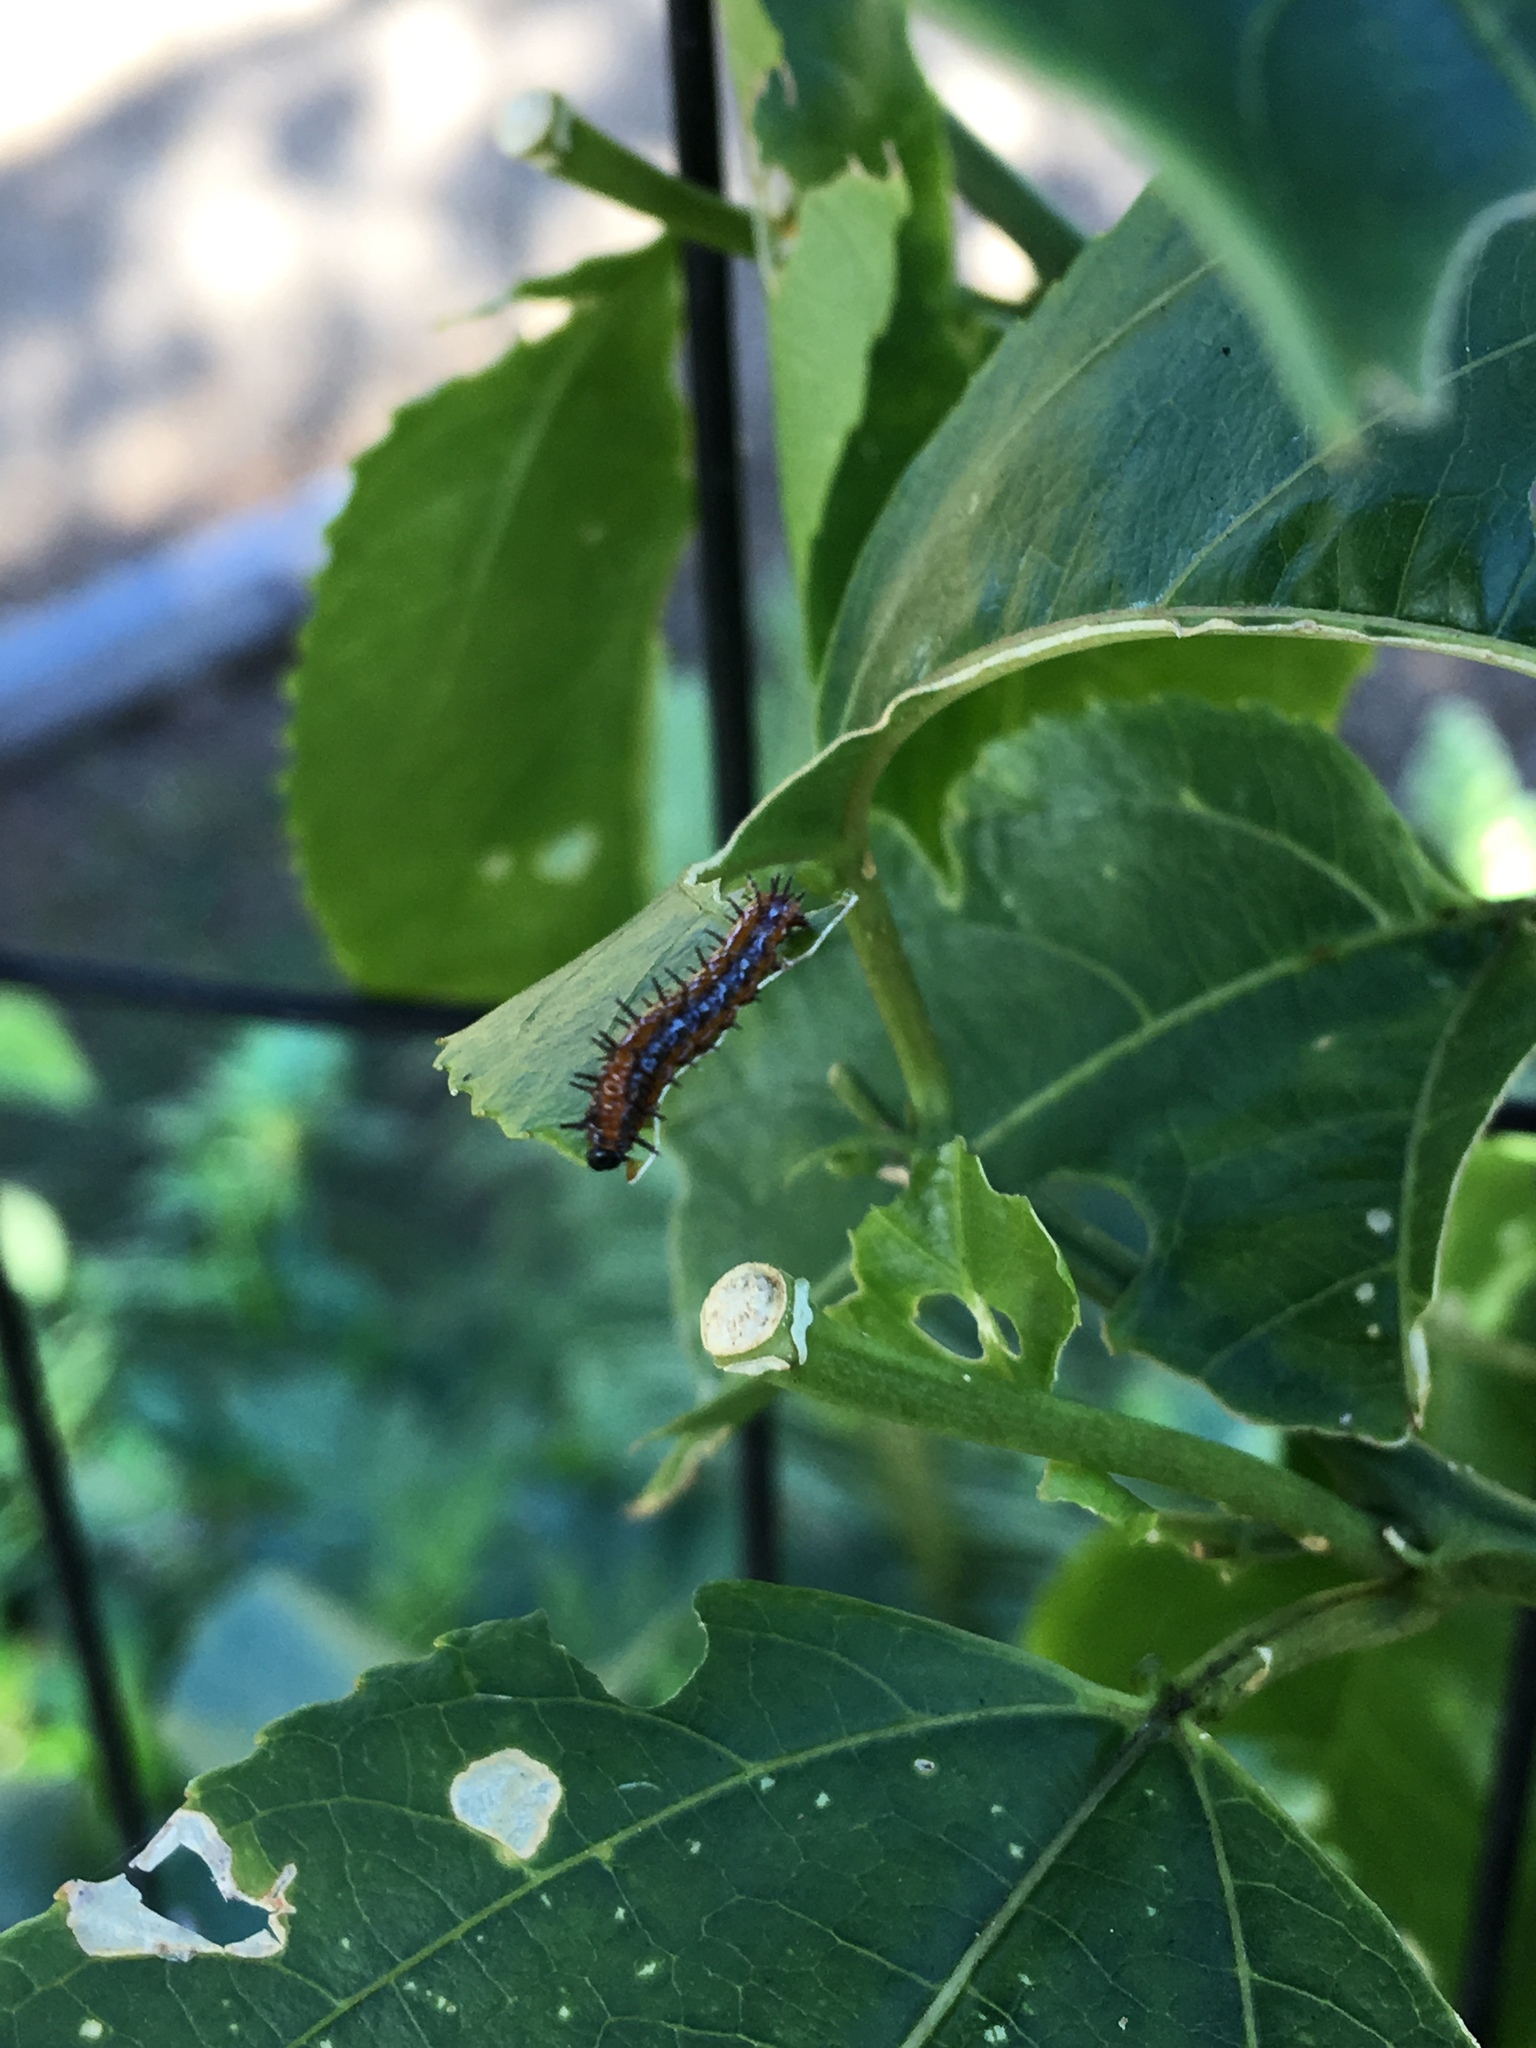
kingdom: Animalia
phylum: Arthropoda
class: Insecta
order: Lepidoptera
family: Nymphalidae
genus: Dione
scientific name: Dione vanillae
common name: Gulf fritillary
